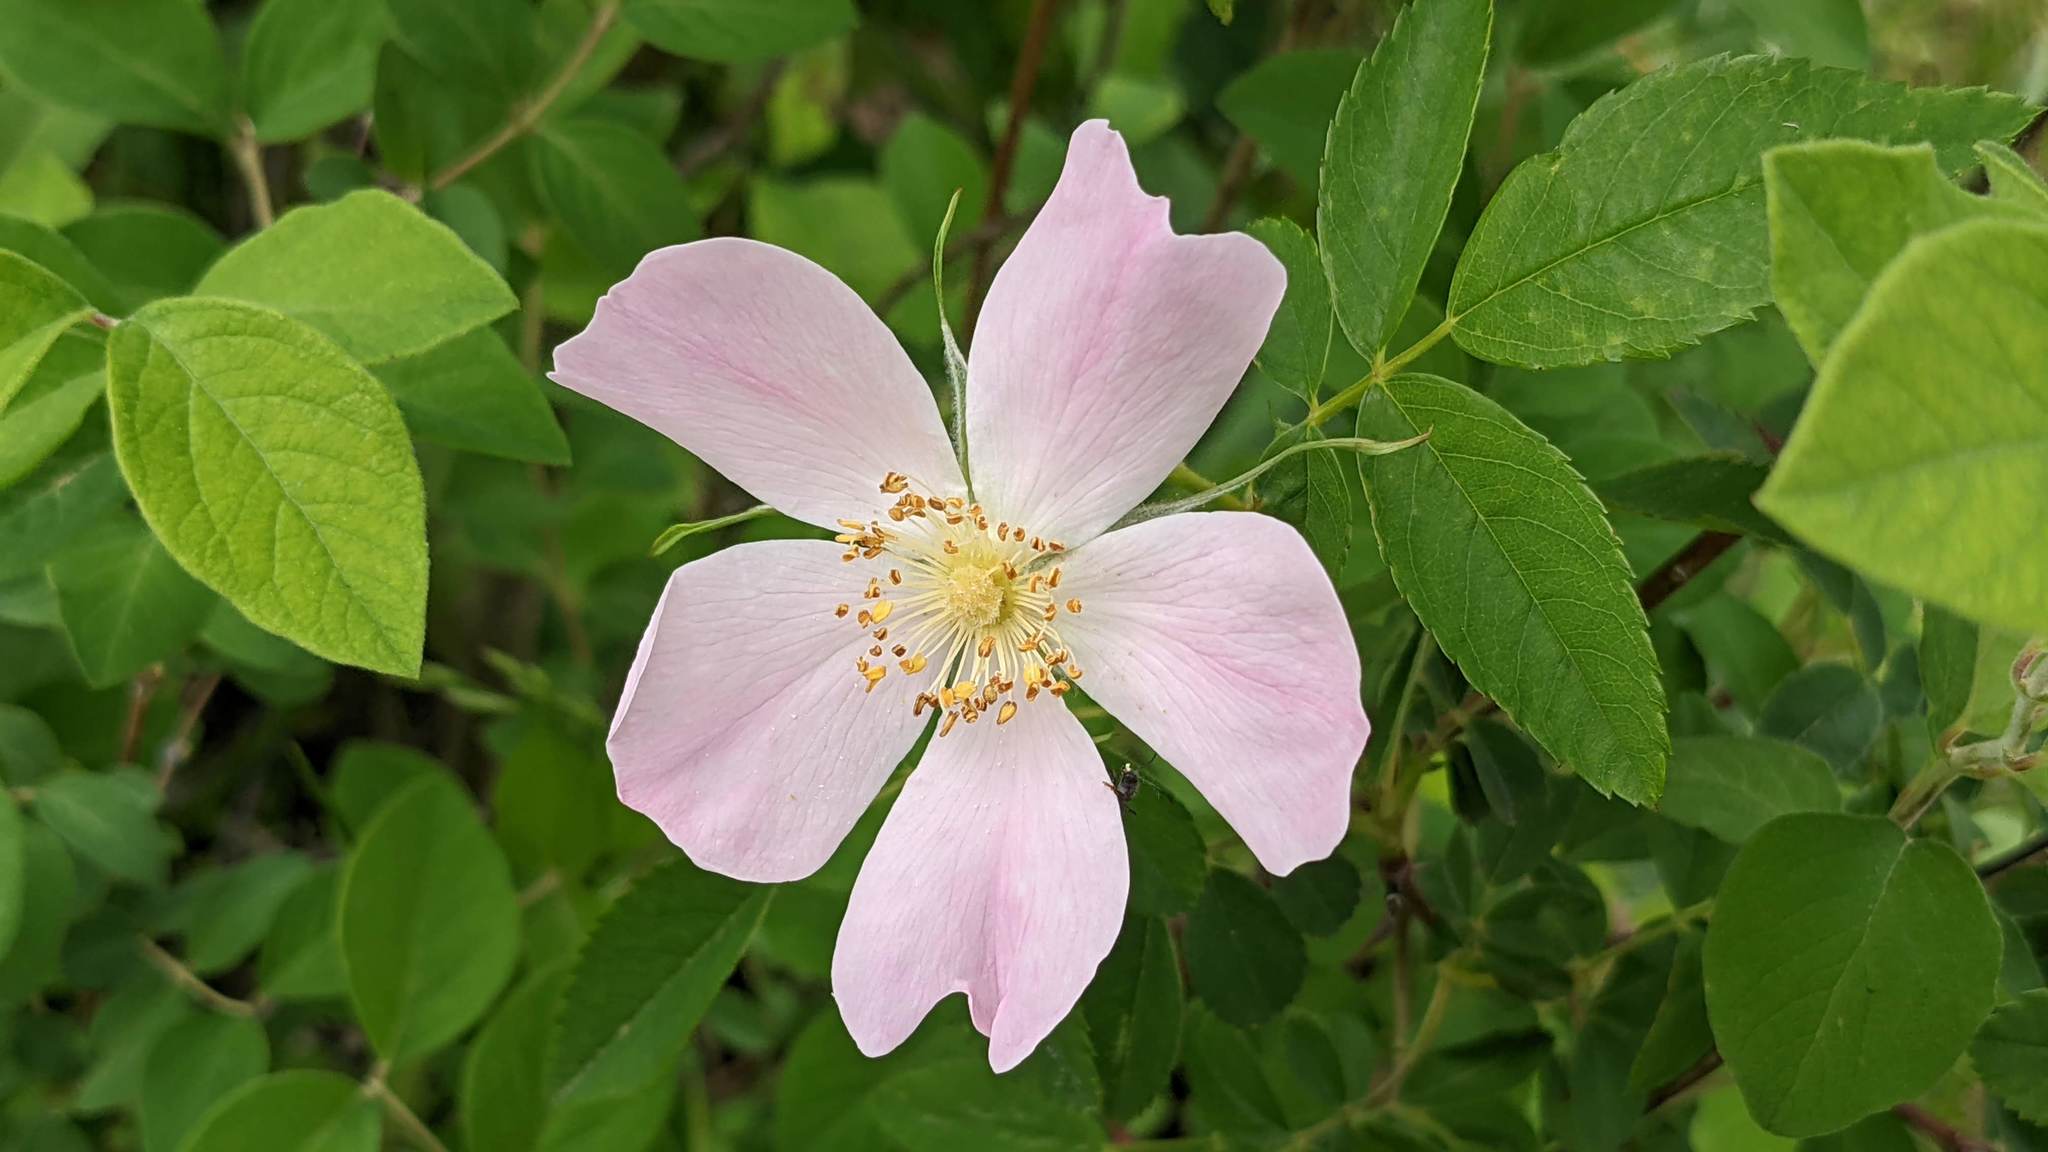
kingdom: Plantae
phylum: Tracheophyta
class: Magnoliopsida
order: Rosales
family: Rosaceae
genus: Rosa
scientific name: Rosa setigera
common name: Prairie rose
